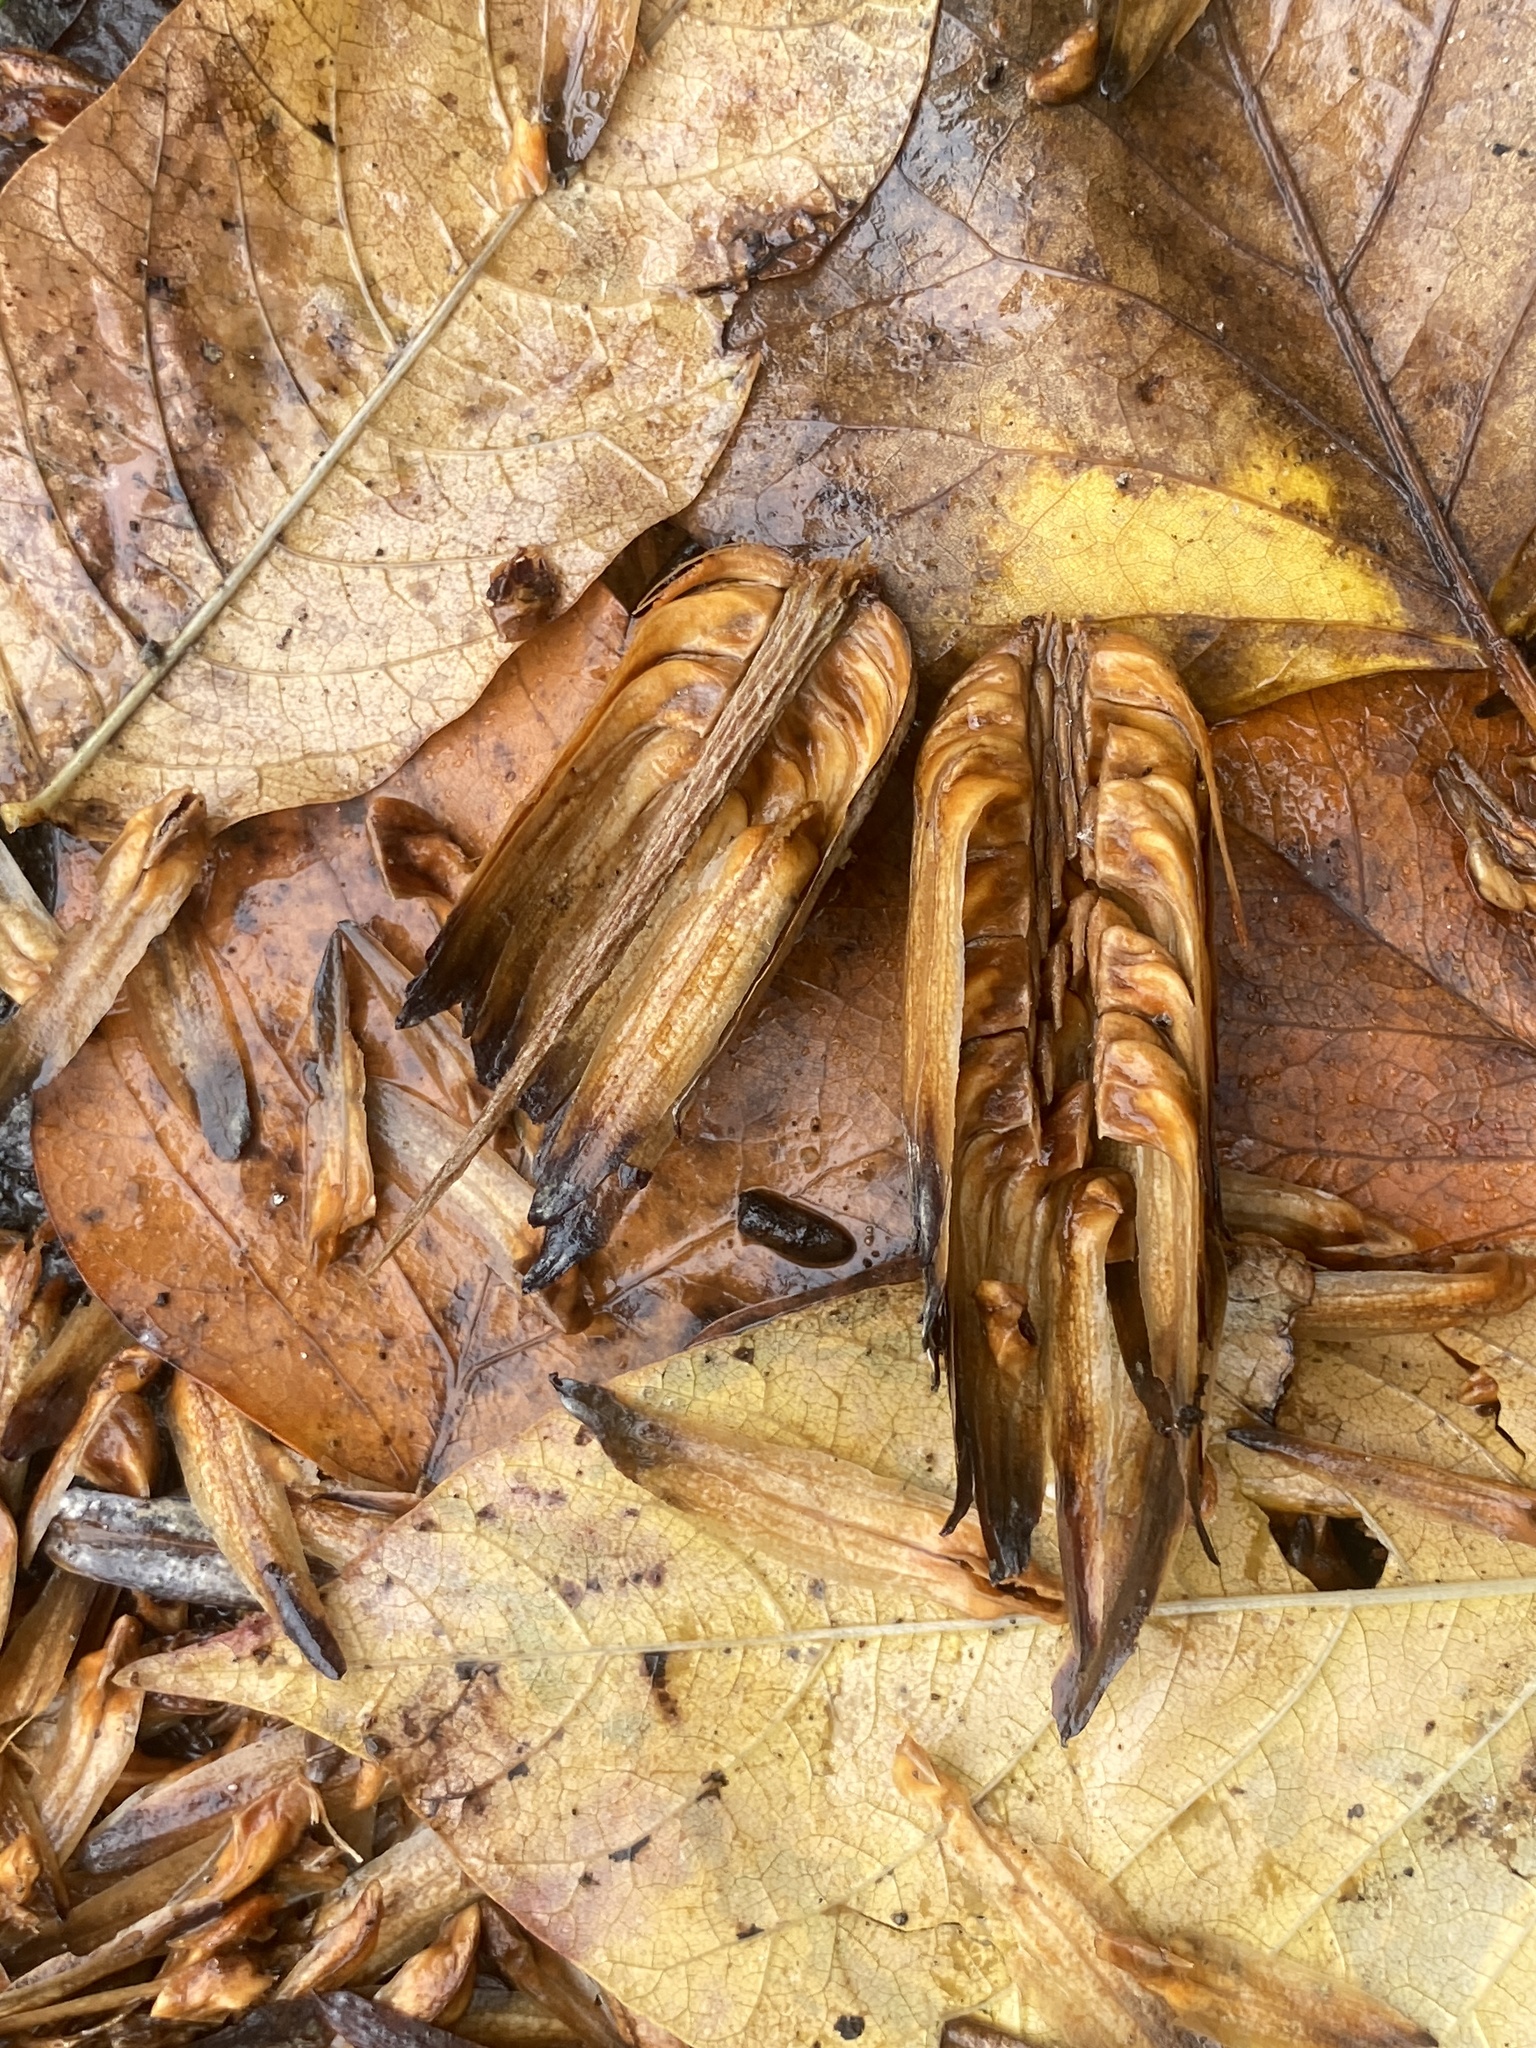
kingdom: Plantae
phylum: Tracheophyta
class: Magnoliopsida
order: Magnoliales
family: Magnoliaceae
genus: Liriodendron
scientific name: Liriodendron tulipifera
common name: Tulip tree
